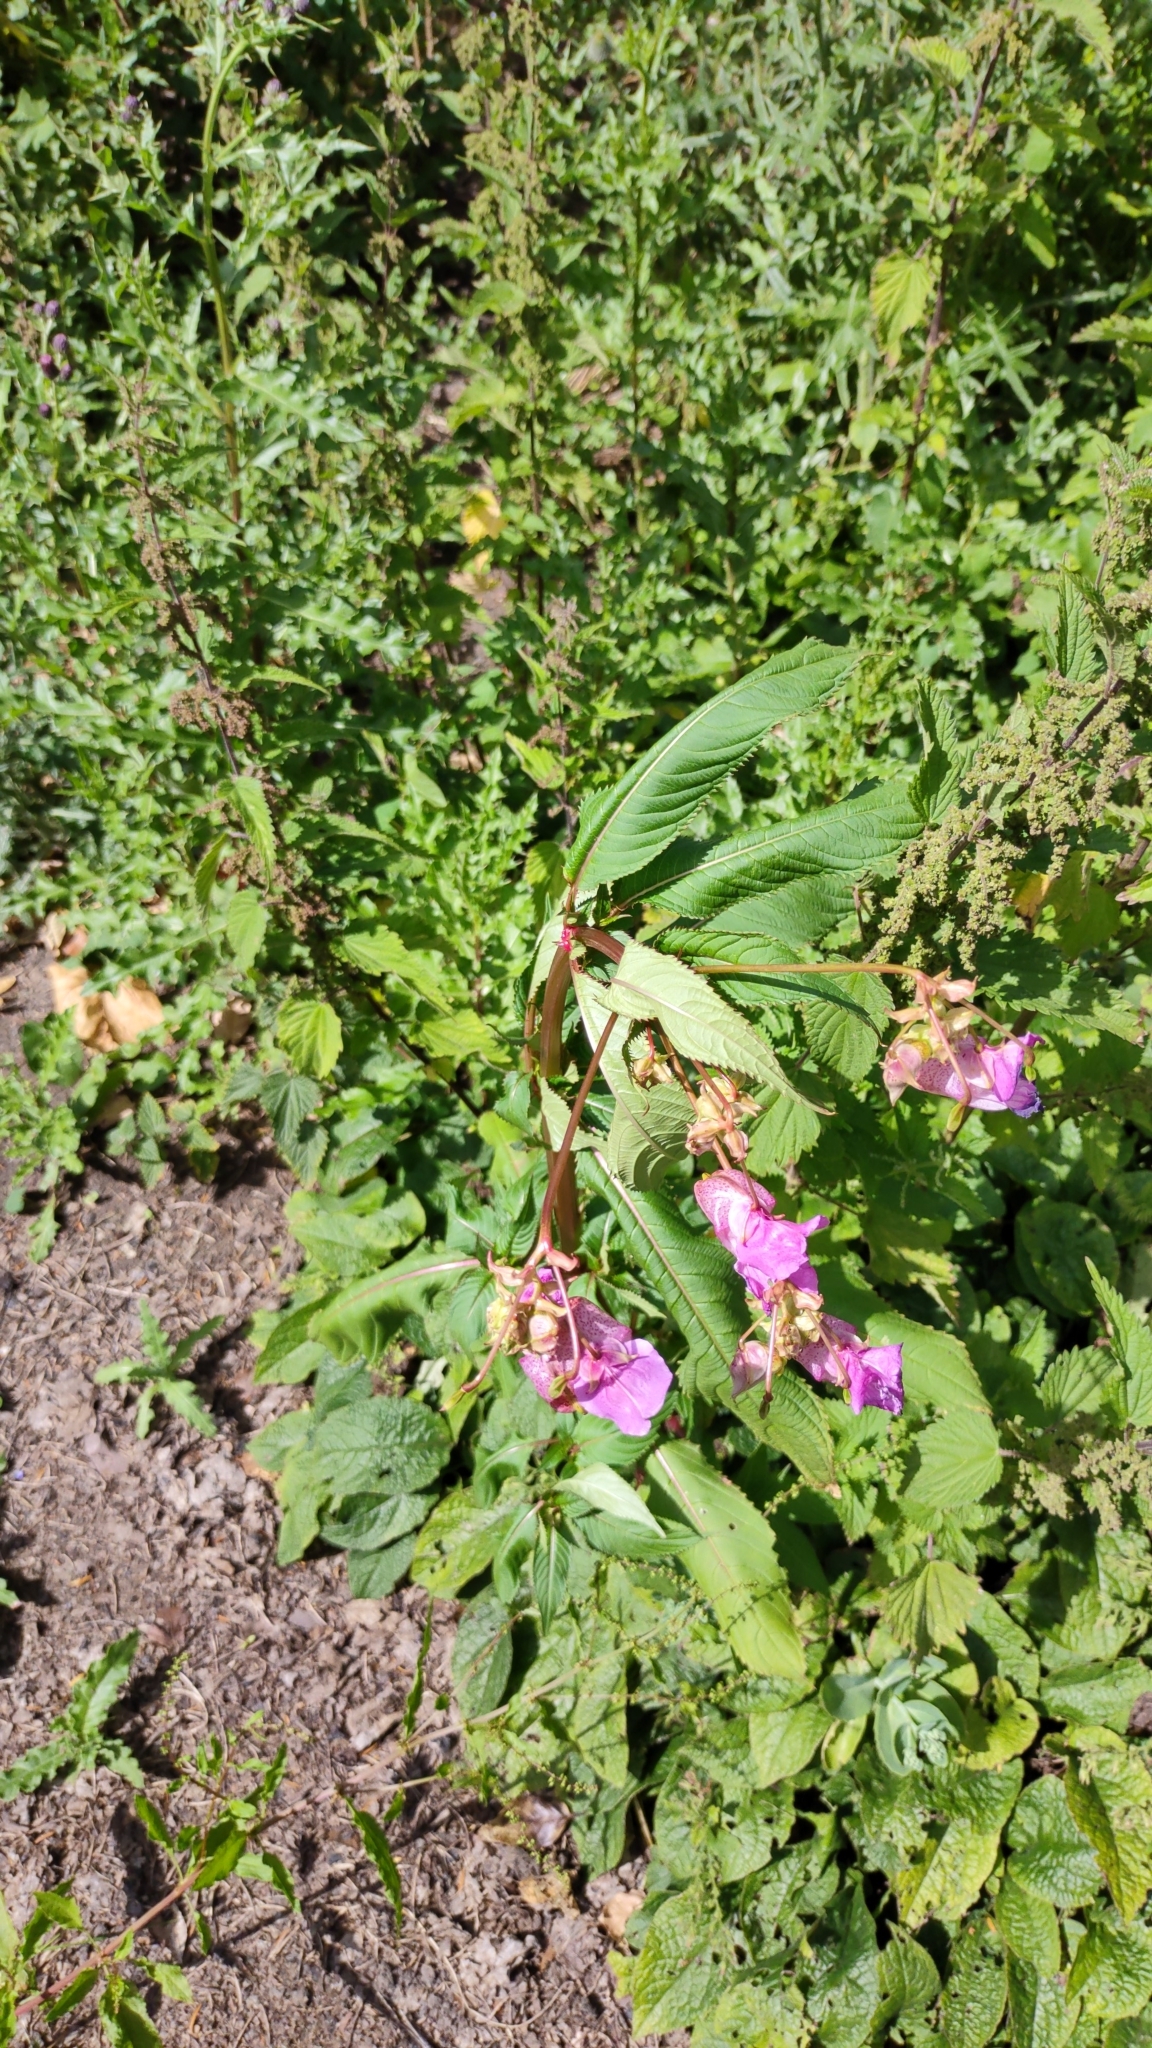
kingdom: Plantae
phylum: Tracheophyta
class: Magnoliopsida
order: Ericales
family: Balsaminaceae
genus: Impatiens
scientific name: Impatiens glandulifera
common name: Himalayan balsam
